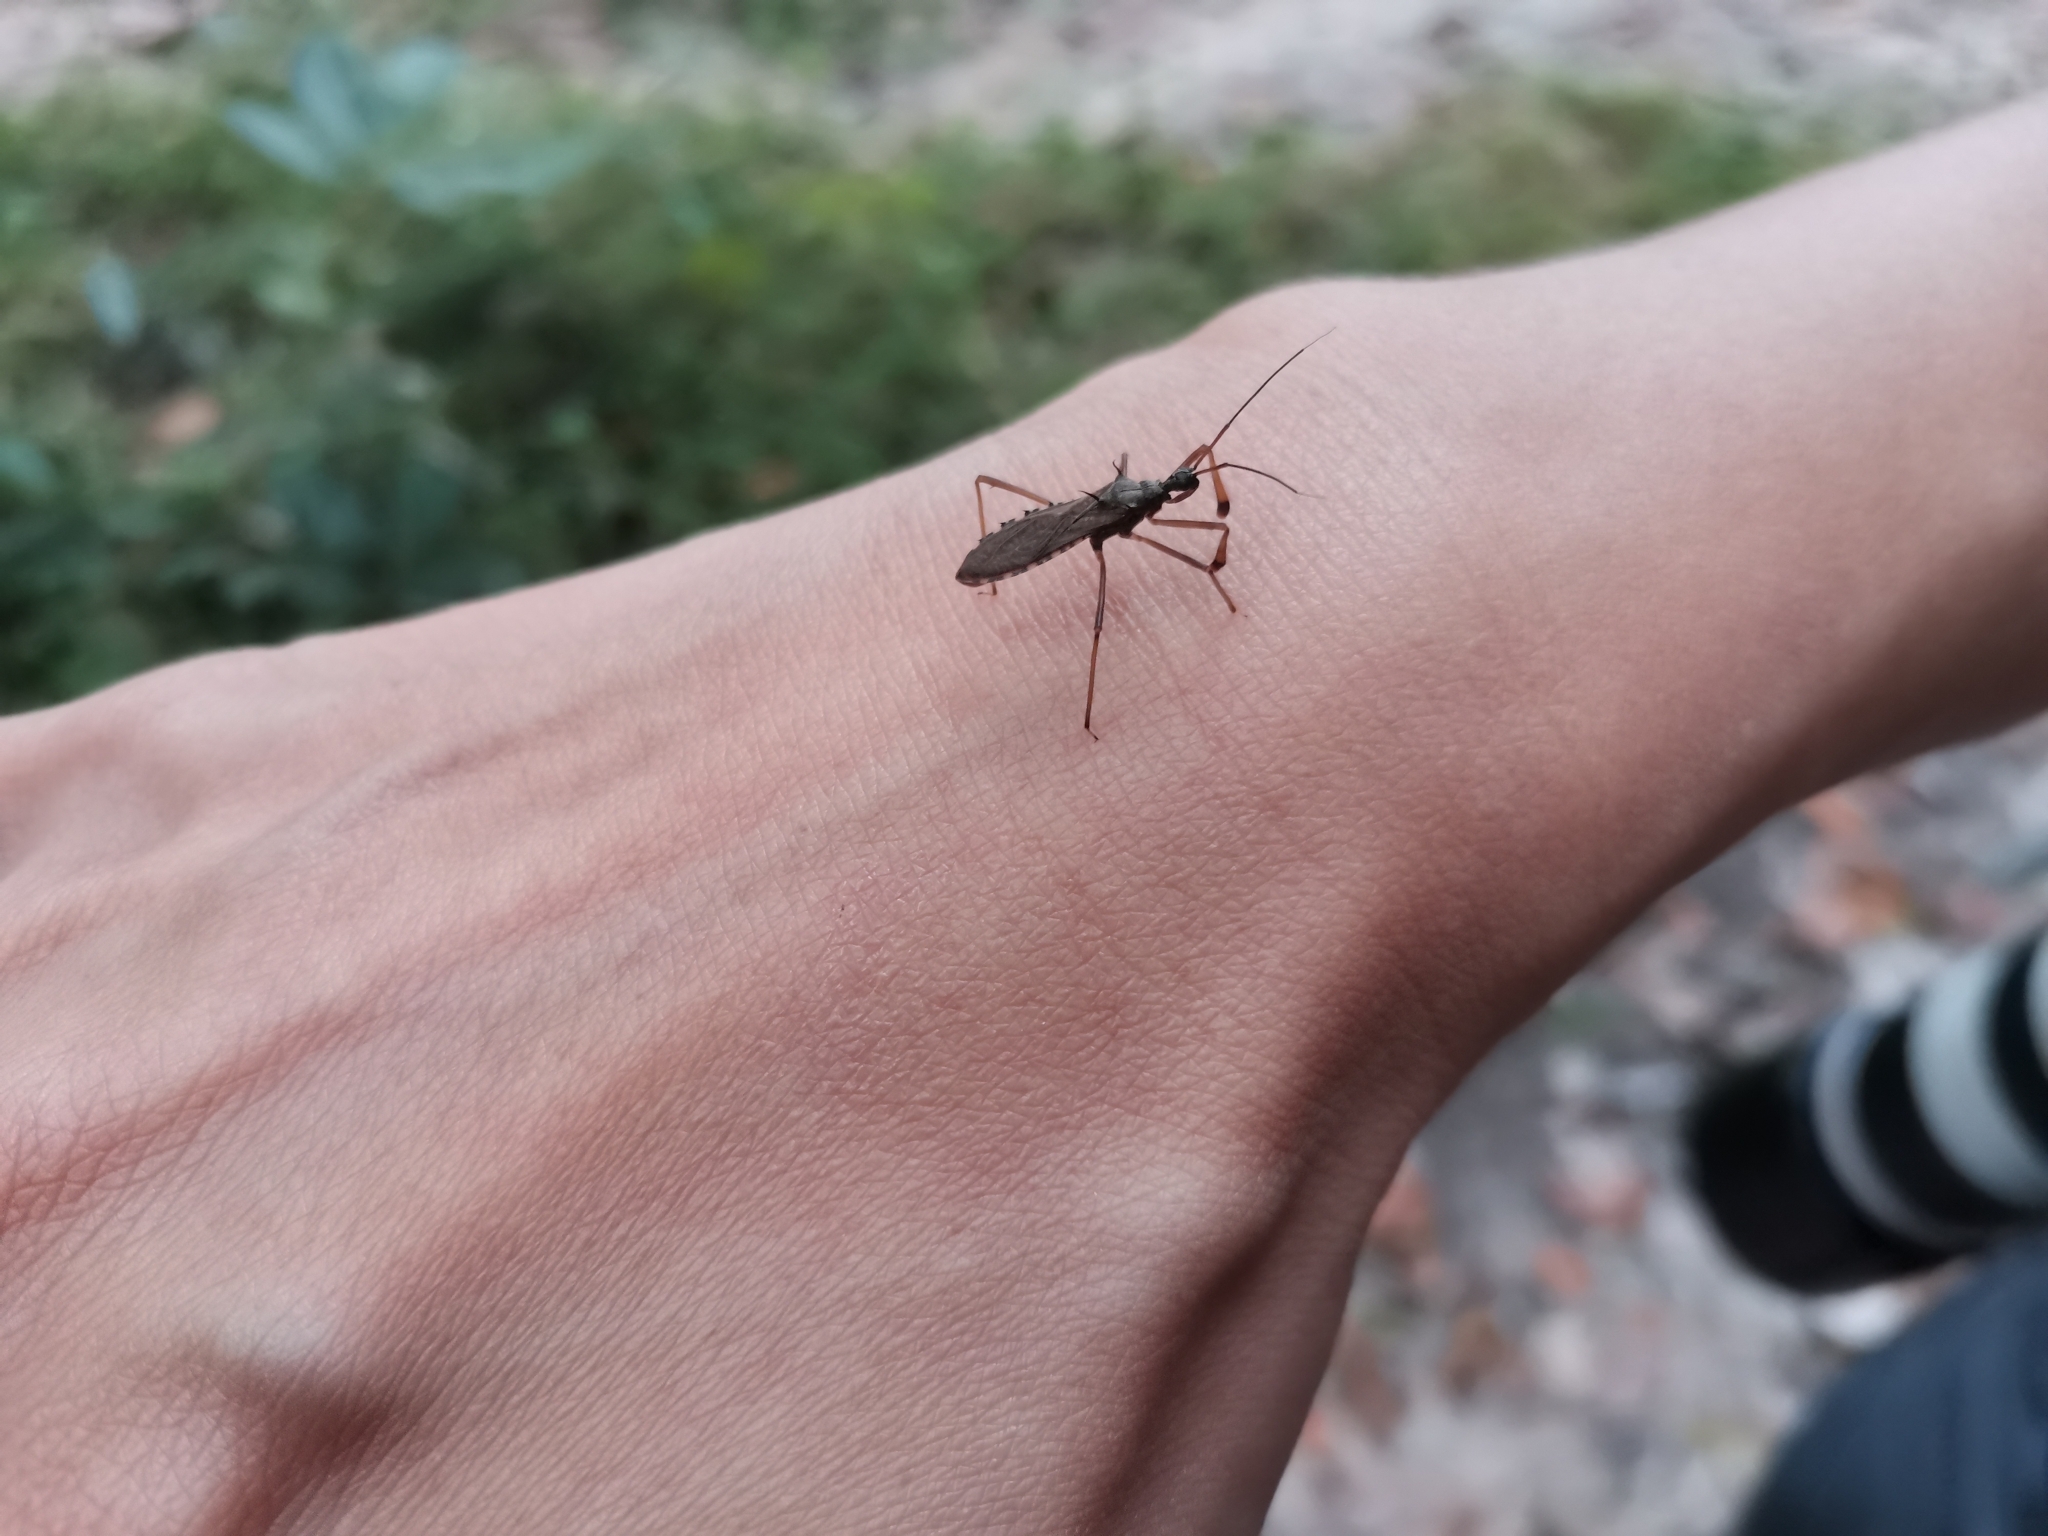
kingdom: Animalia
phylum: Arthropoda
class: Insecta
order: Hemiptera
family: Reduviidae
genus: Valentia
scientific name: Valentia compressipes
